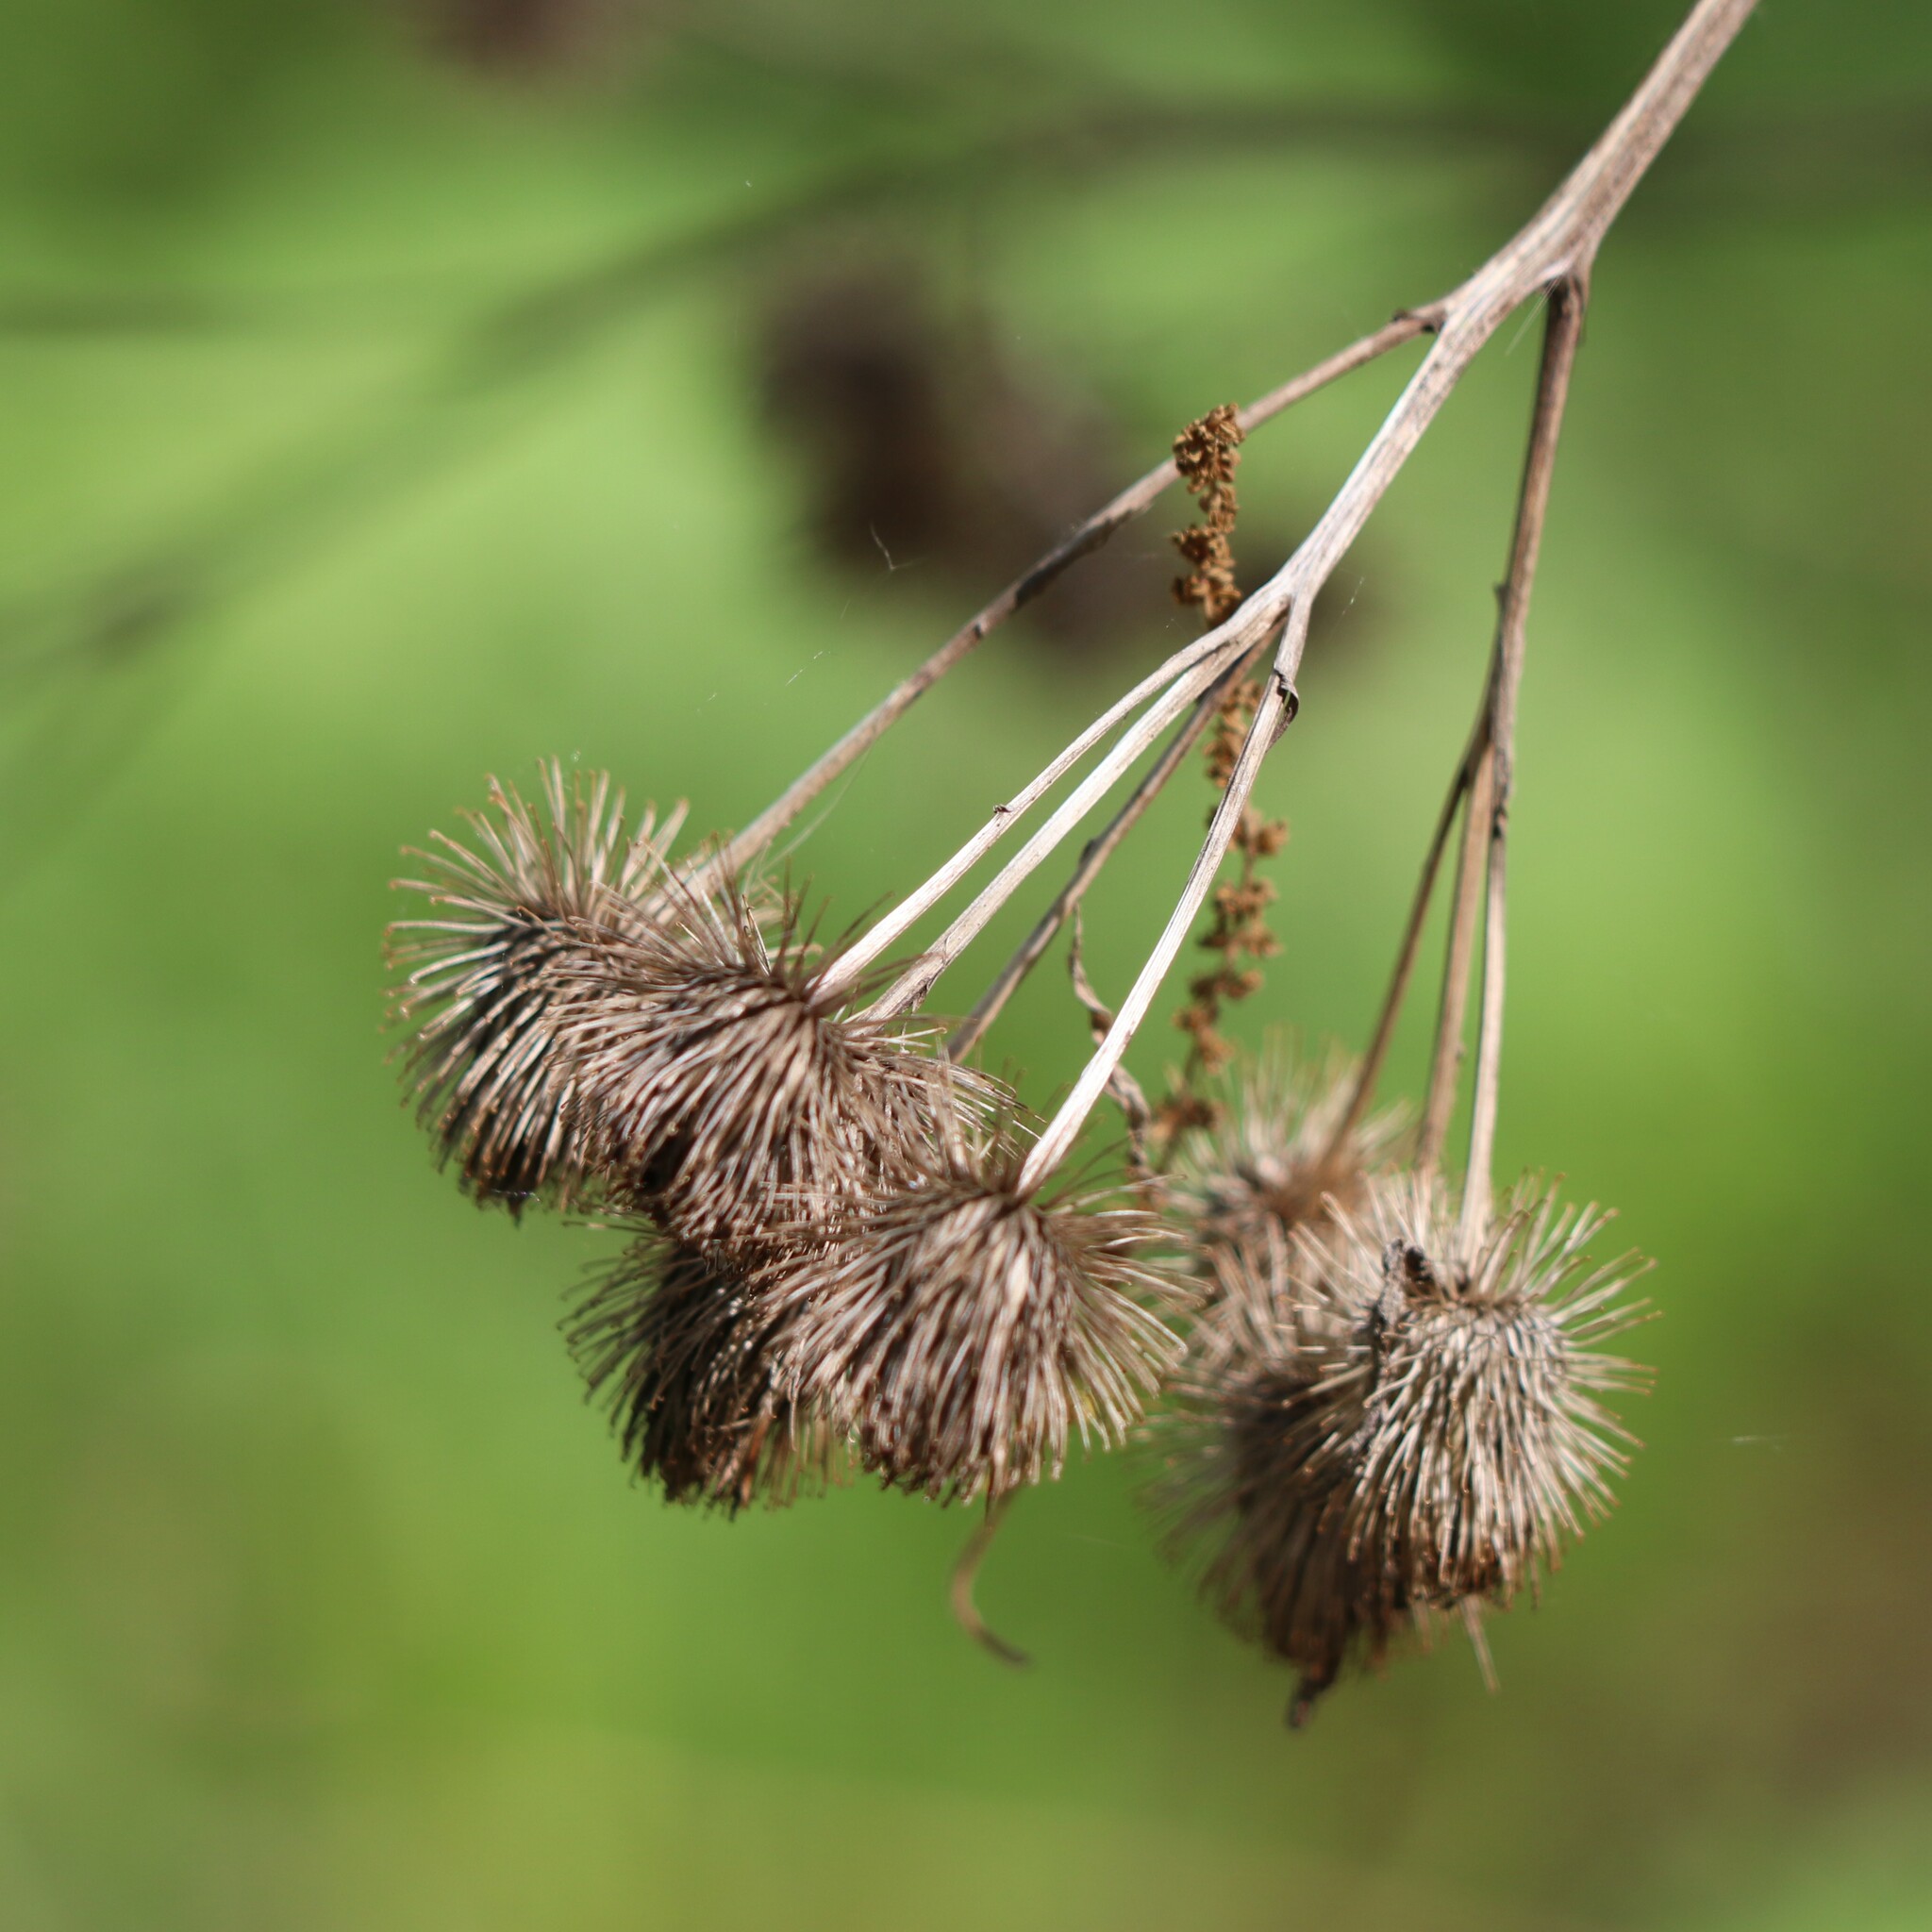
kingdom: Plantae
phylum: Tracheophyta
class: Magnoliopsida
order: Asterales
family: Asteraceae
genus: Arctium
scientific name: Arctium lappa
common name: Greater burdock
